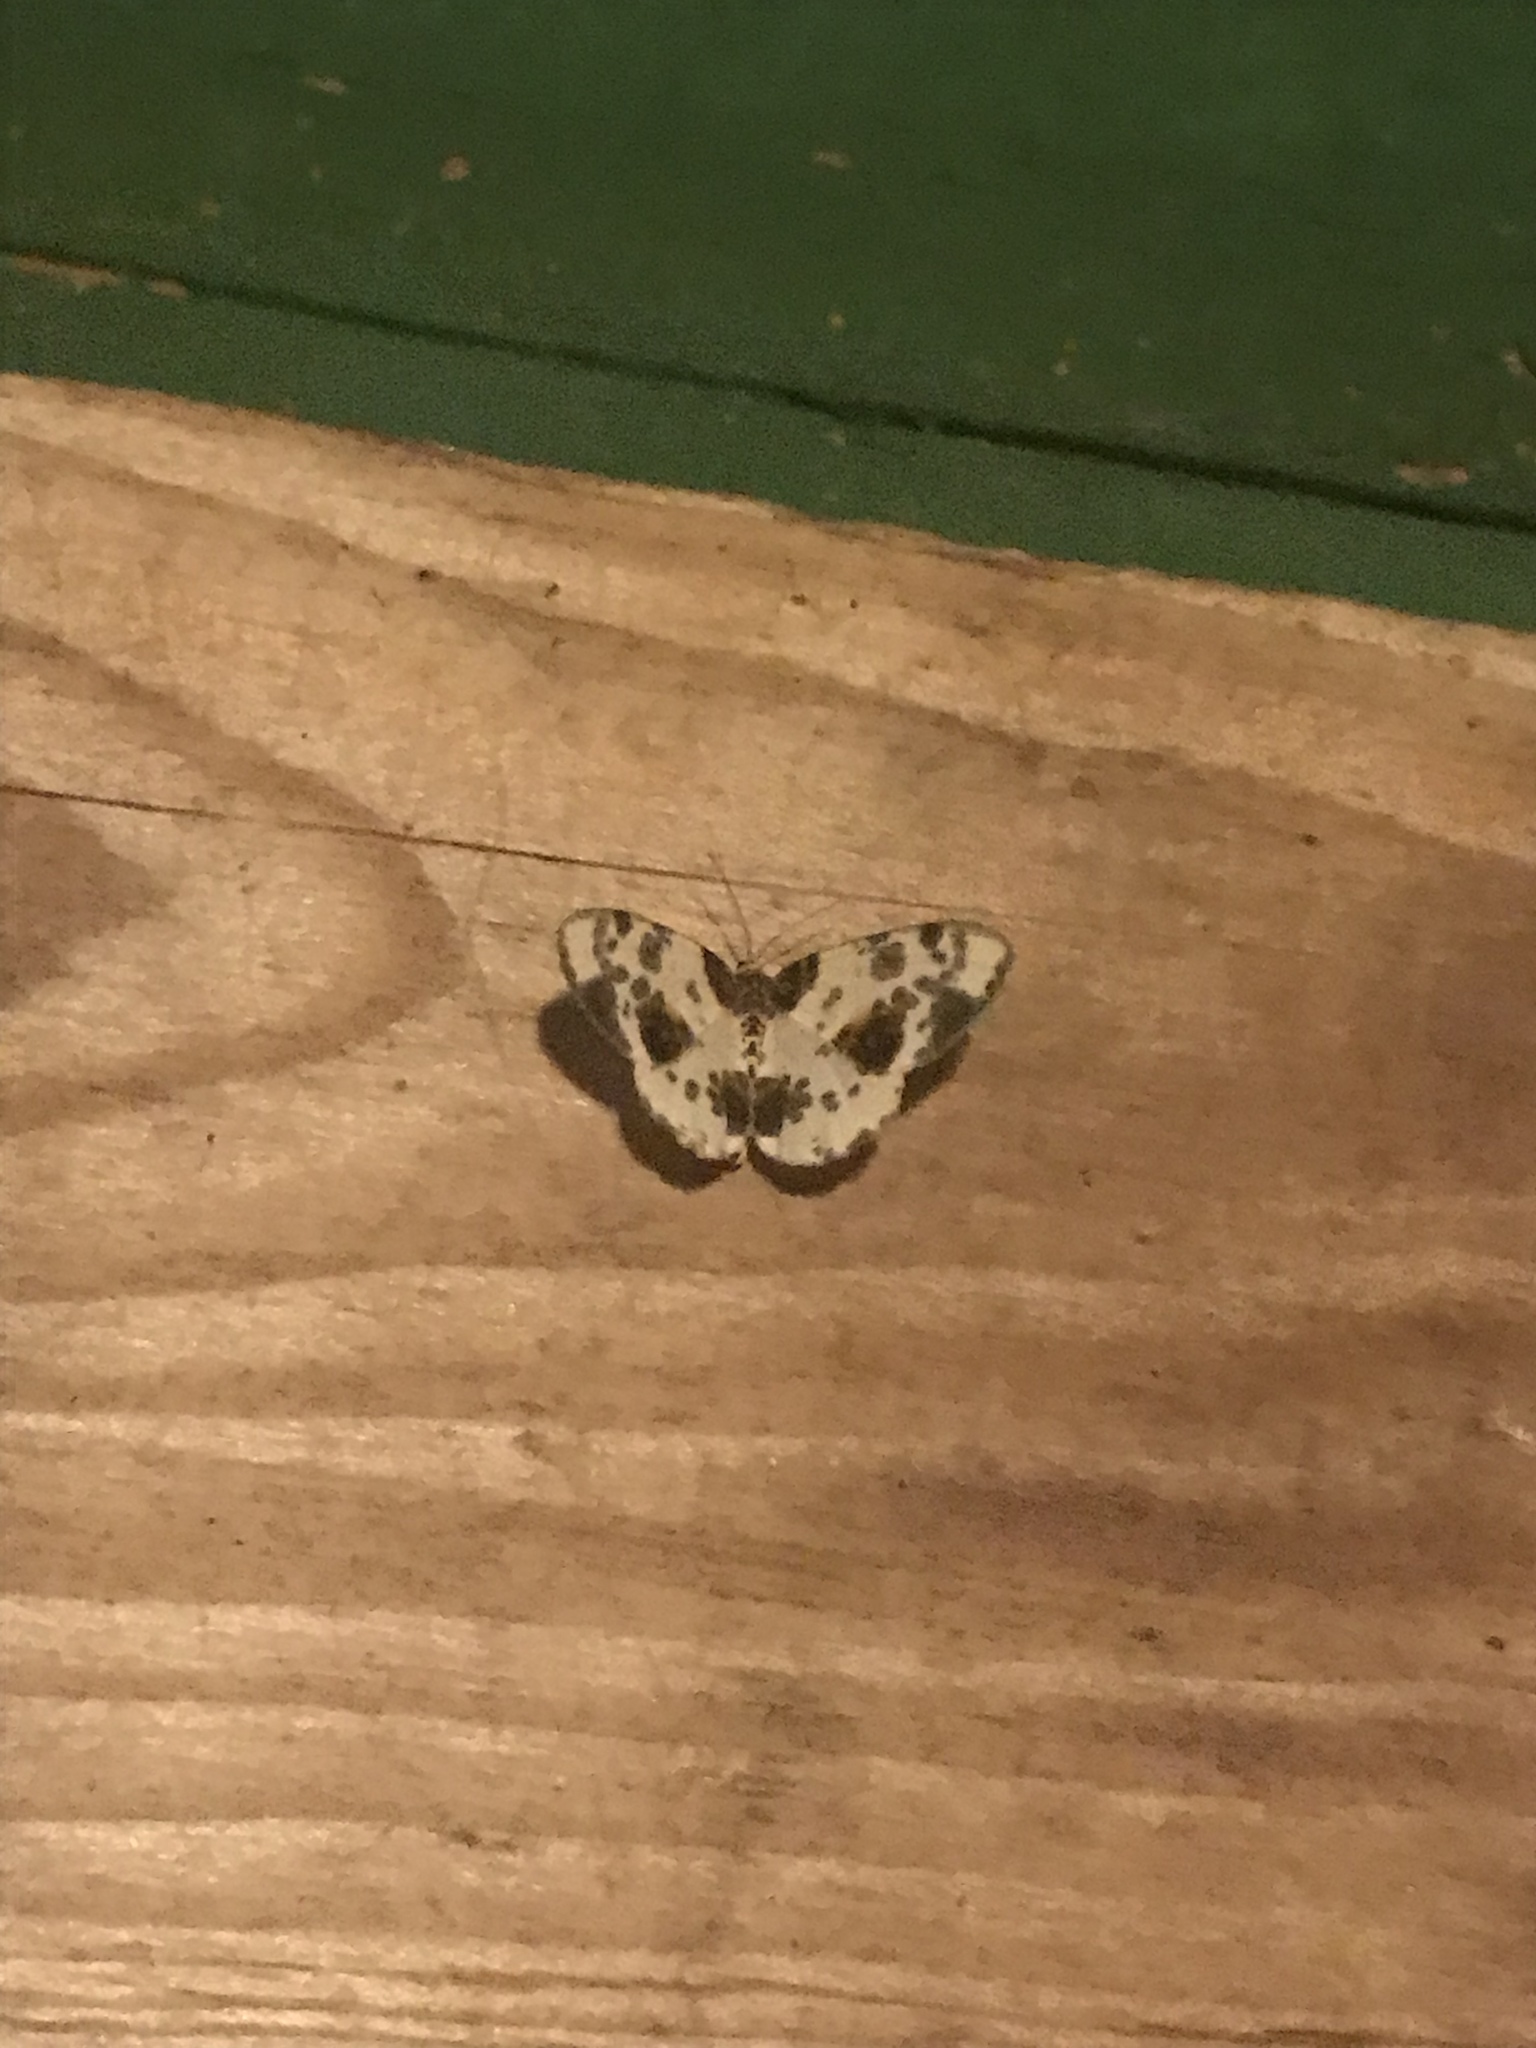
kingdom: Animalia
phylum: Arthropoda
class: Insecta
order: Lepidoptera
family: Geometridae
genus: Abraxas
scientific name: Abraxas sylvata
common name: Clouded magpie
